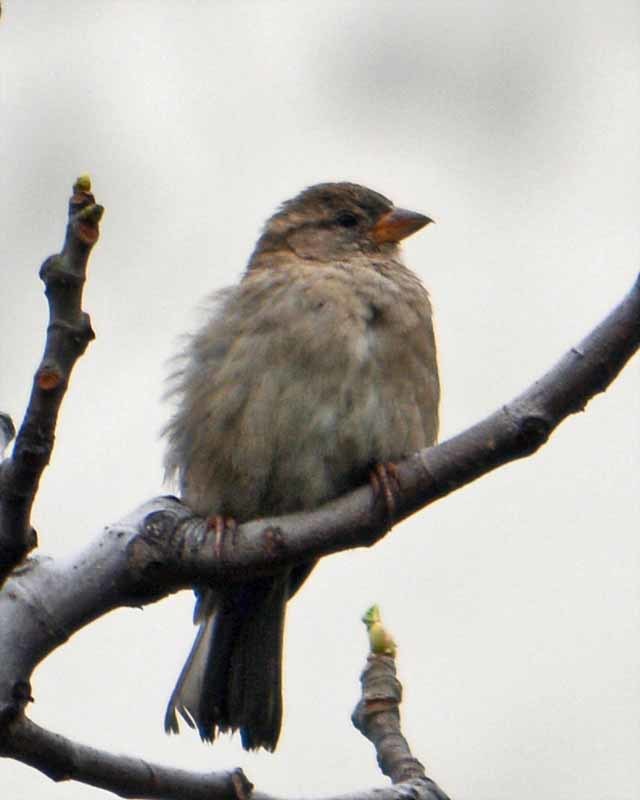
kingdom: Animalia
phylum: Chordata
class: Aves
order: Passeriformes
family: Passeridae
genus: Passer
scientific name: Passer domesticus
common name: House sparrow
